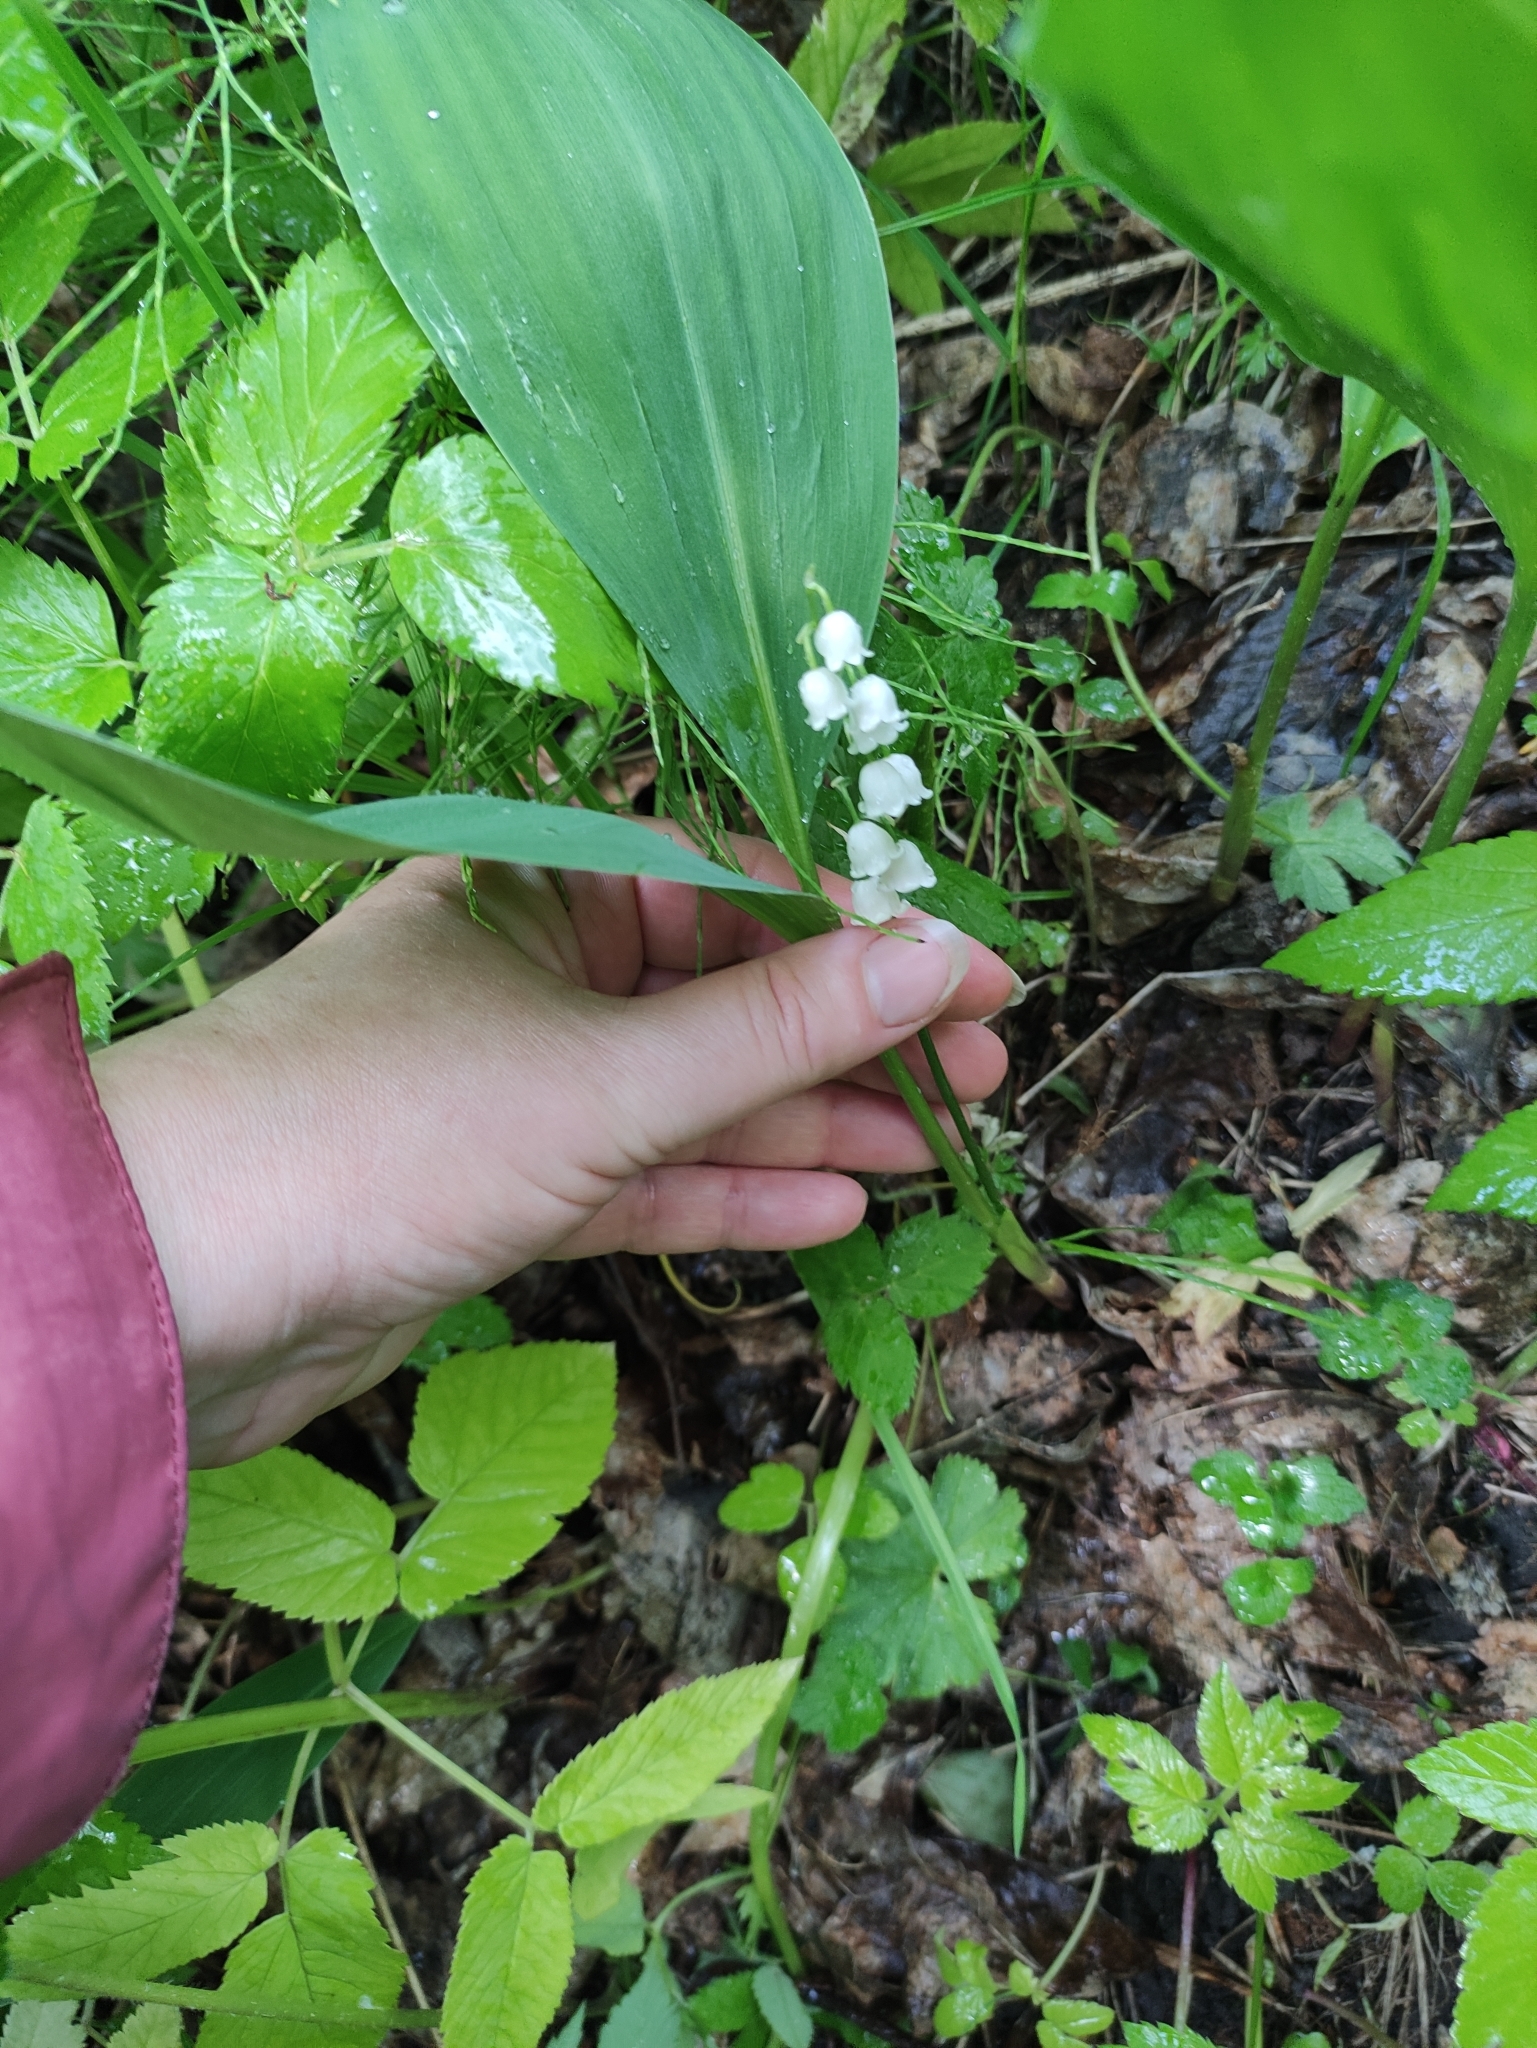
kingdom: Plantae
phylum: Tracheophyta
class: Liliopsida
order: Asparagales
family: Asparagaceae
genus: Convallaria
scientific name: Convallaria majalis
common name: Lily-of-the-valley
